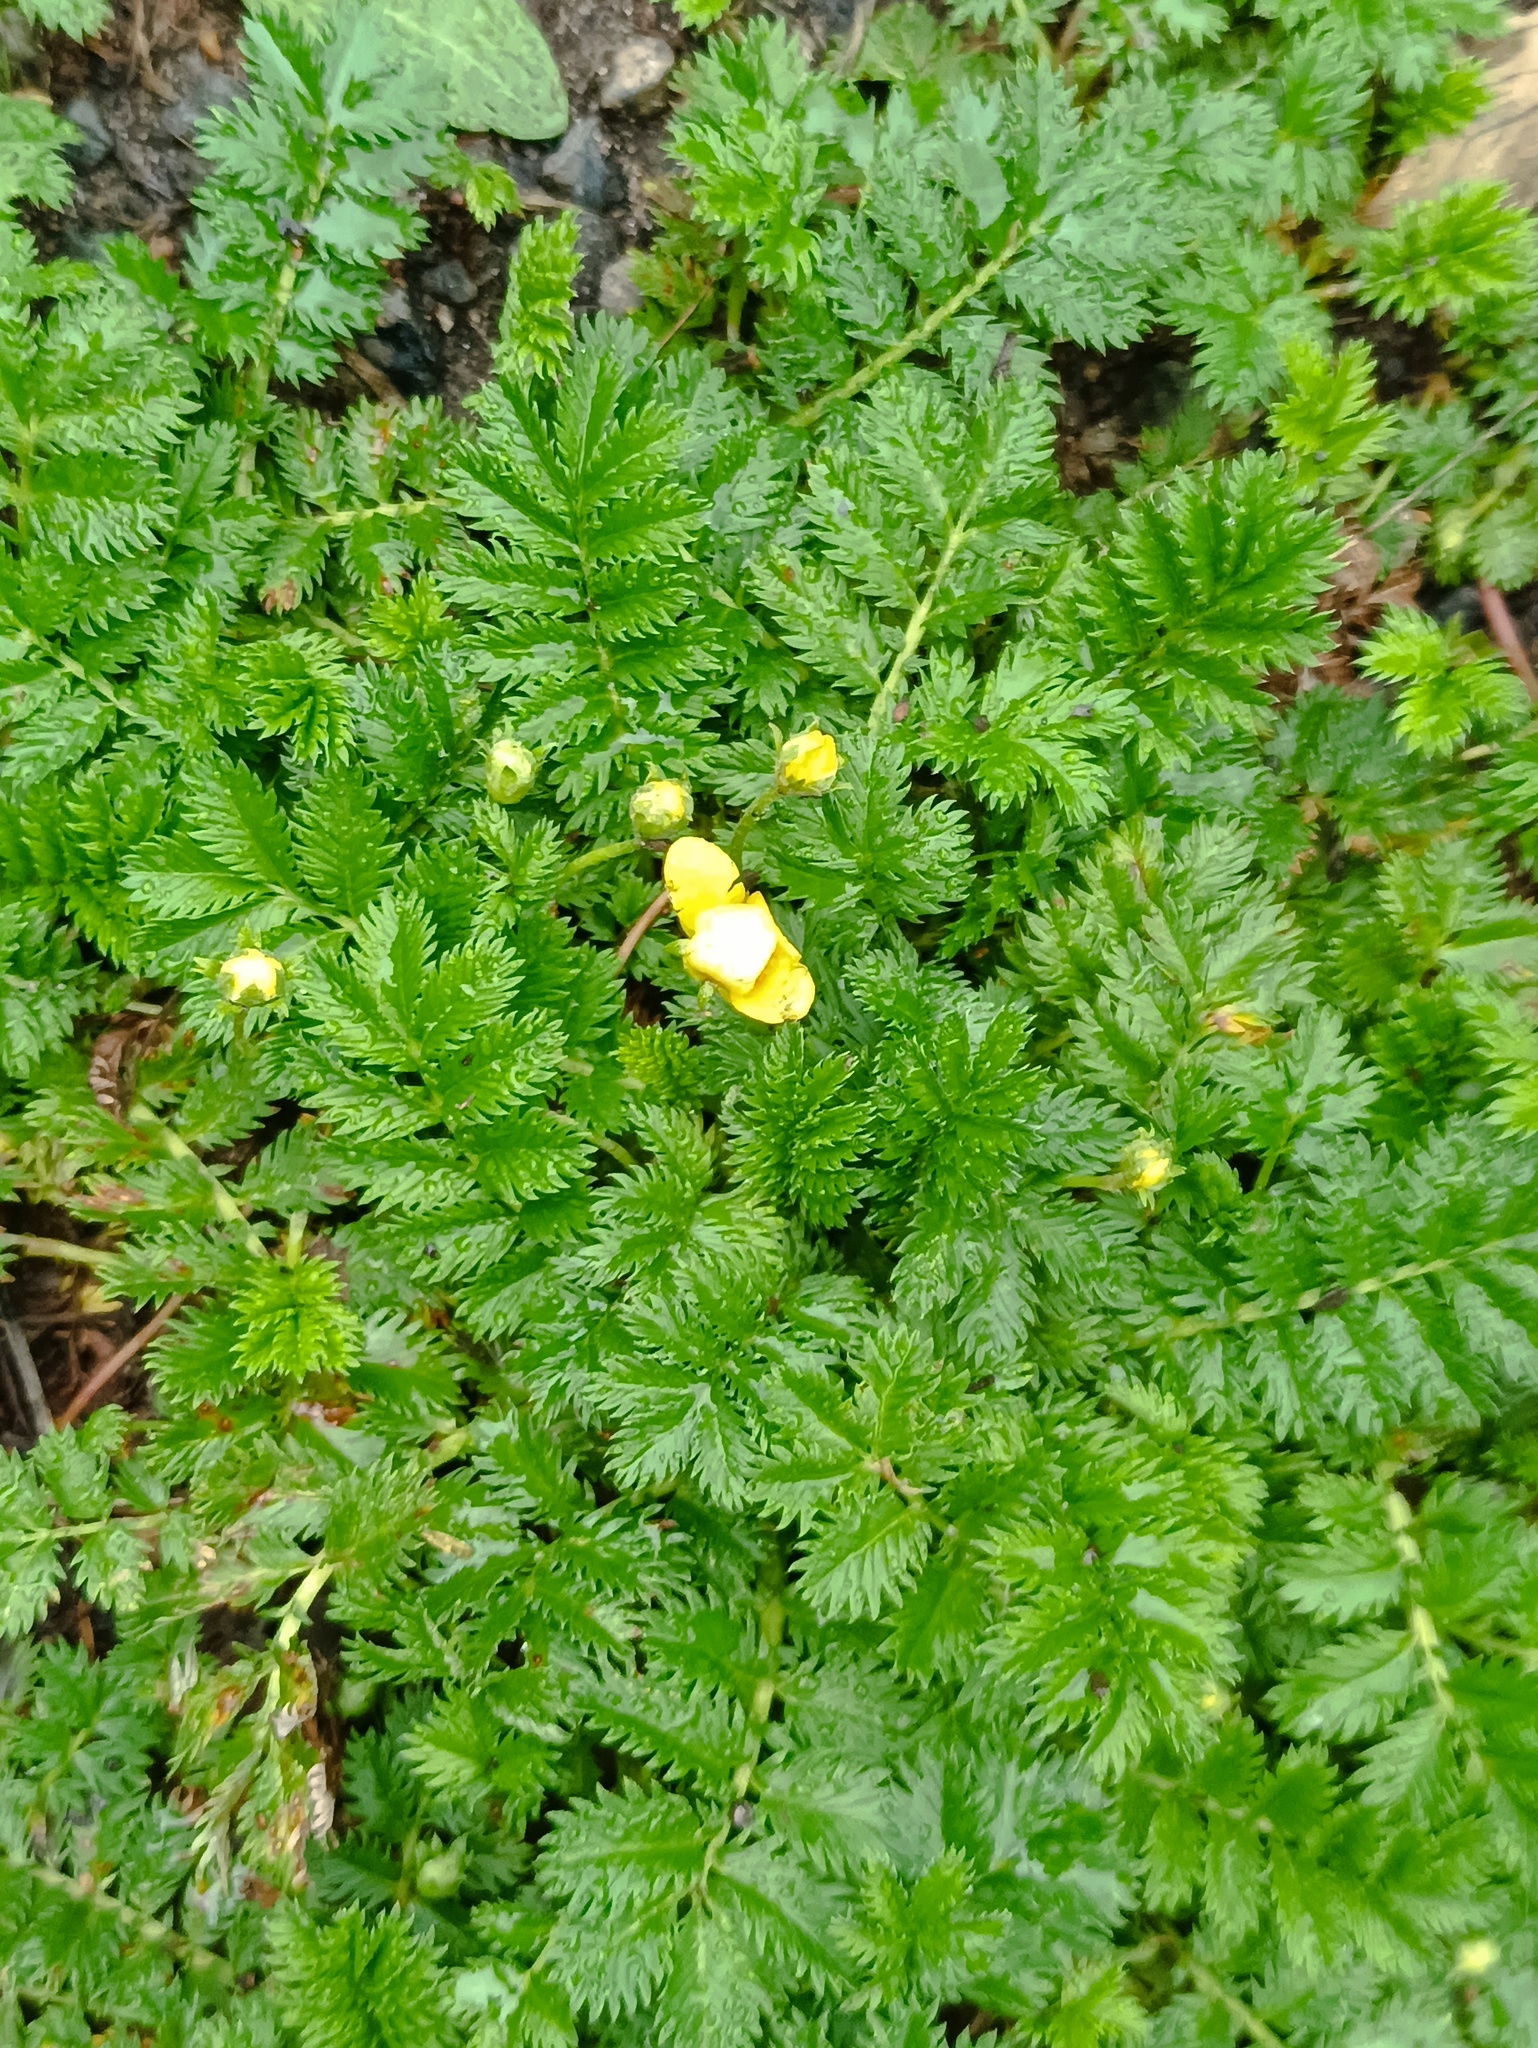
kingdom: Plantae
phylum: Tracheophyta
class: Magnoliopsida
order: Rosales
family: Rosaceae
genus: Argentina
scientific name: Argentina anserina
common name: Common silverweed
